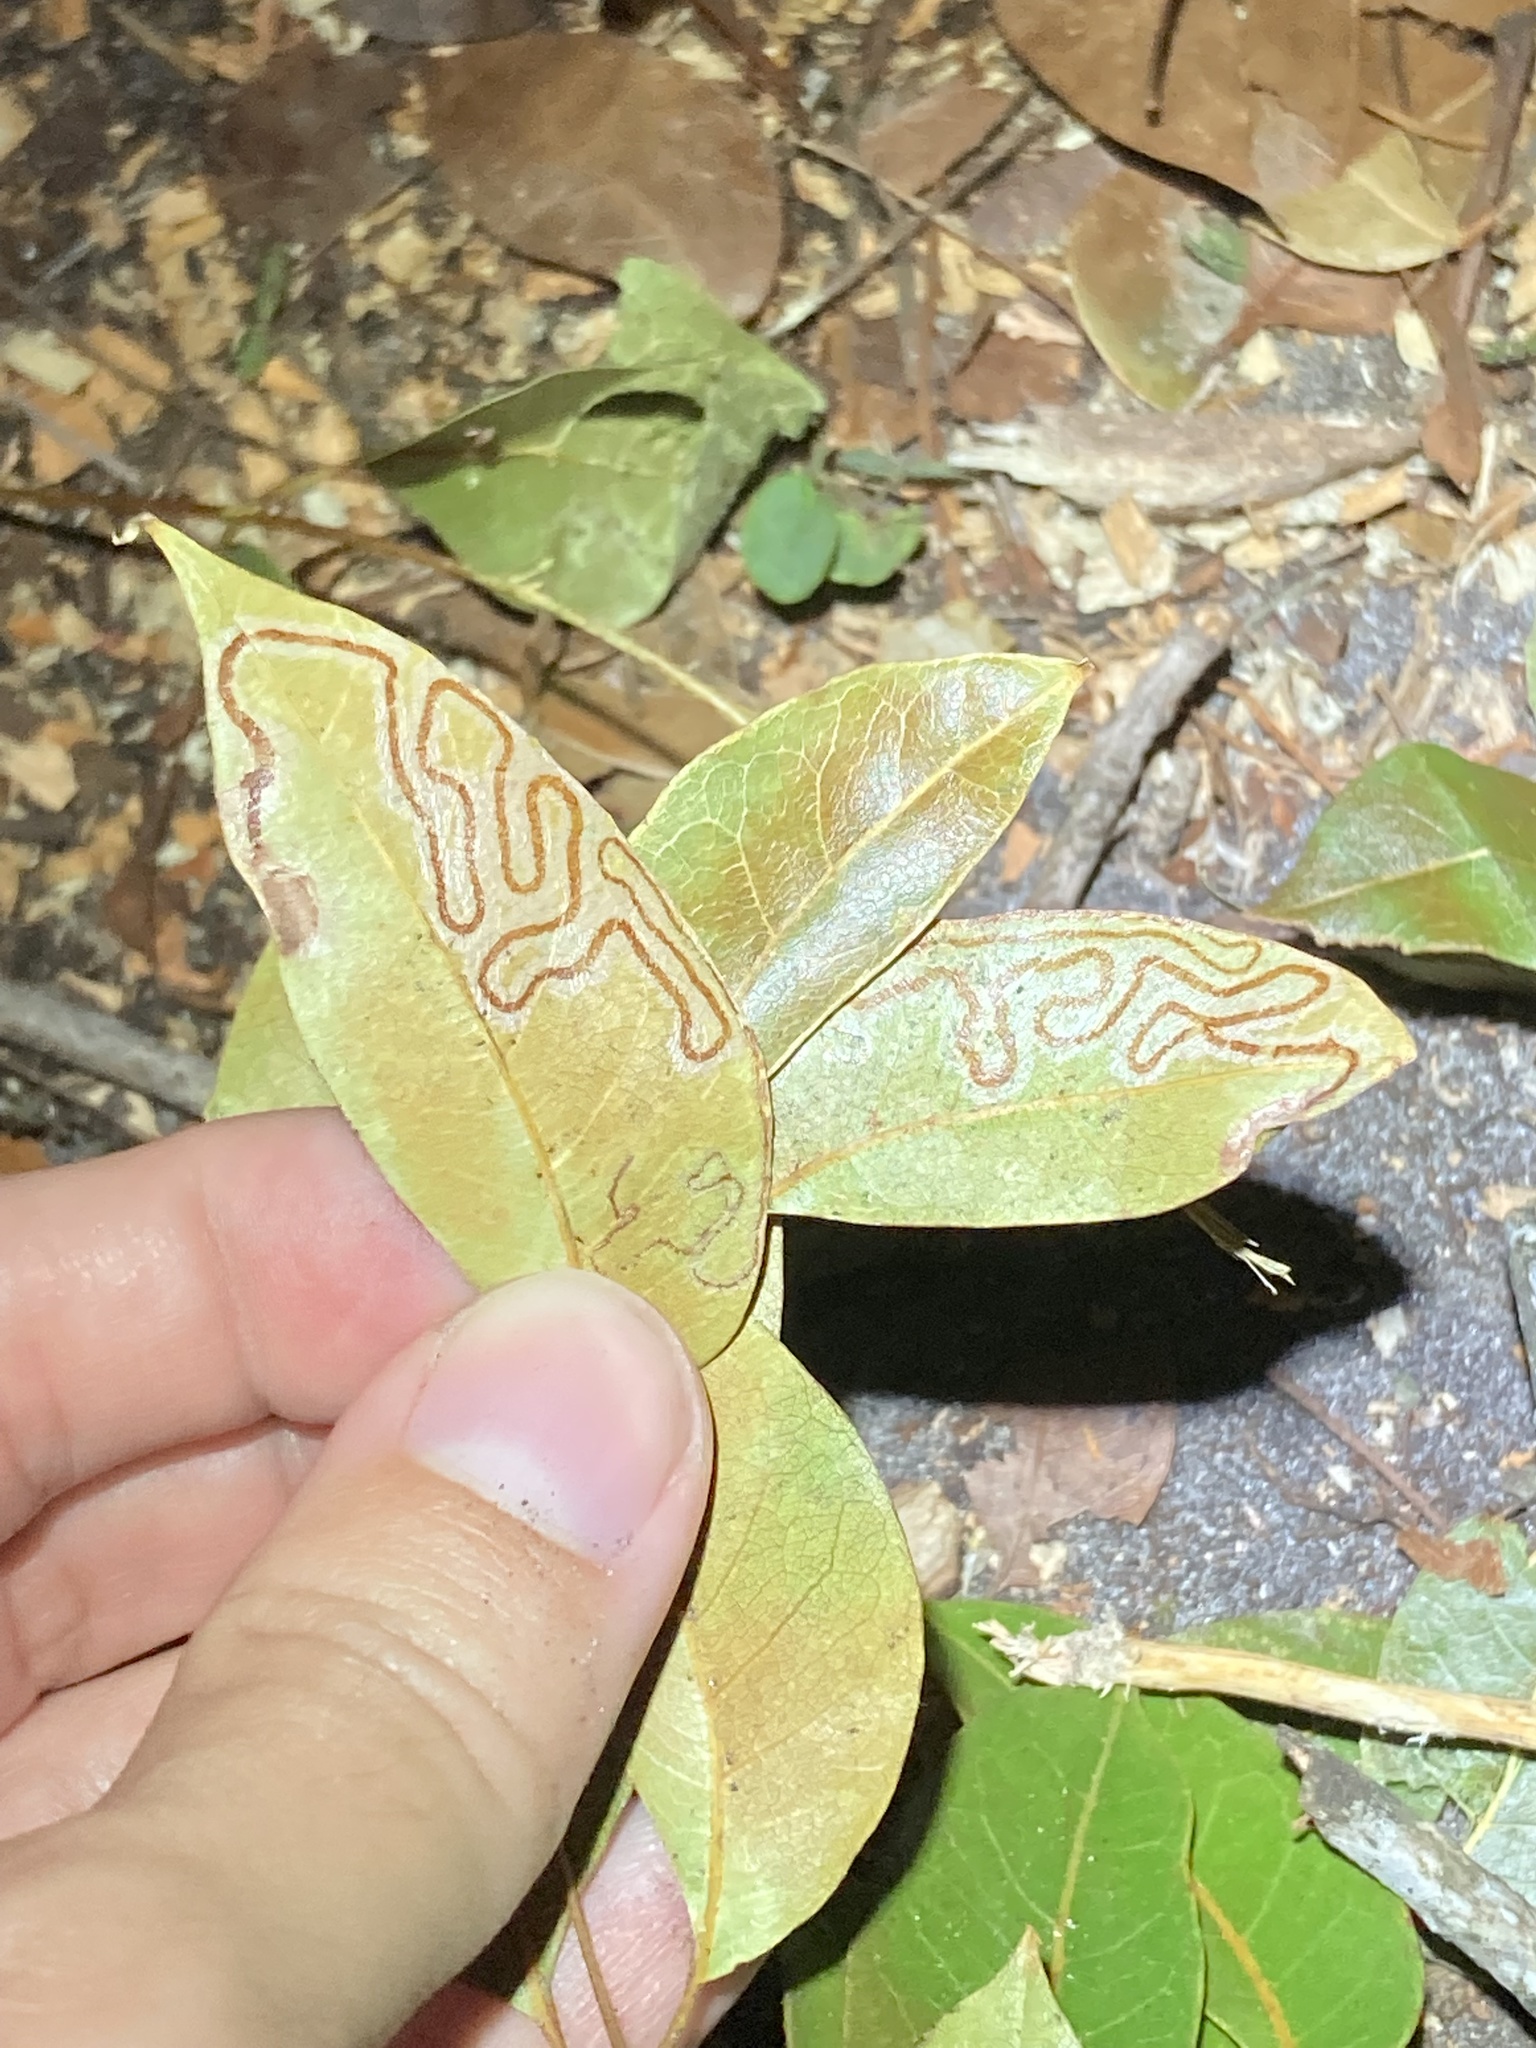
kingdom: Animalia
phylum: Arthropoda
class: Insecta
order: Lepidoptera
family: Gracillariidae
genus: Phyllocnistis
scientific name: Phyllocnistis meliacella
